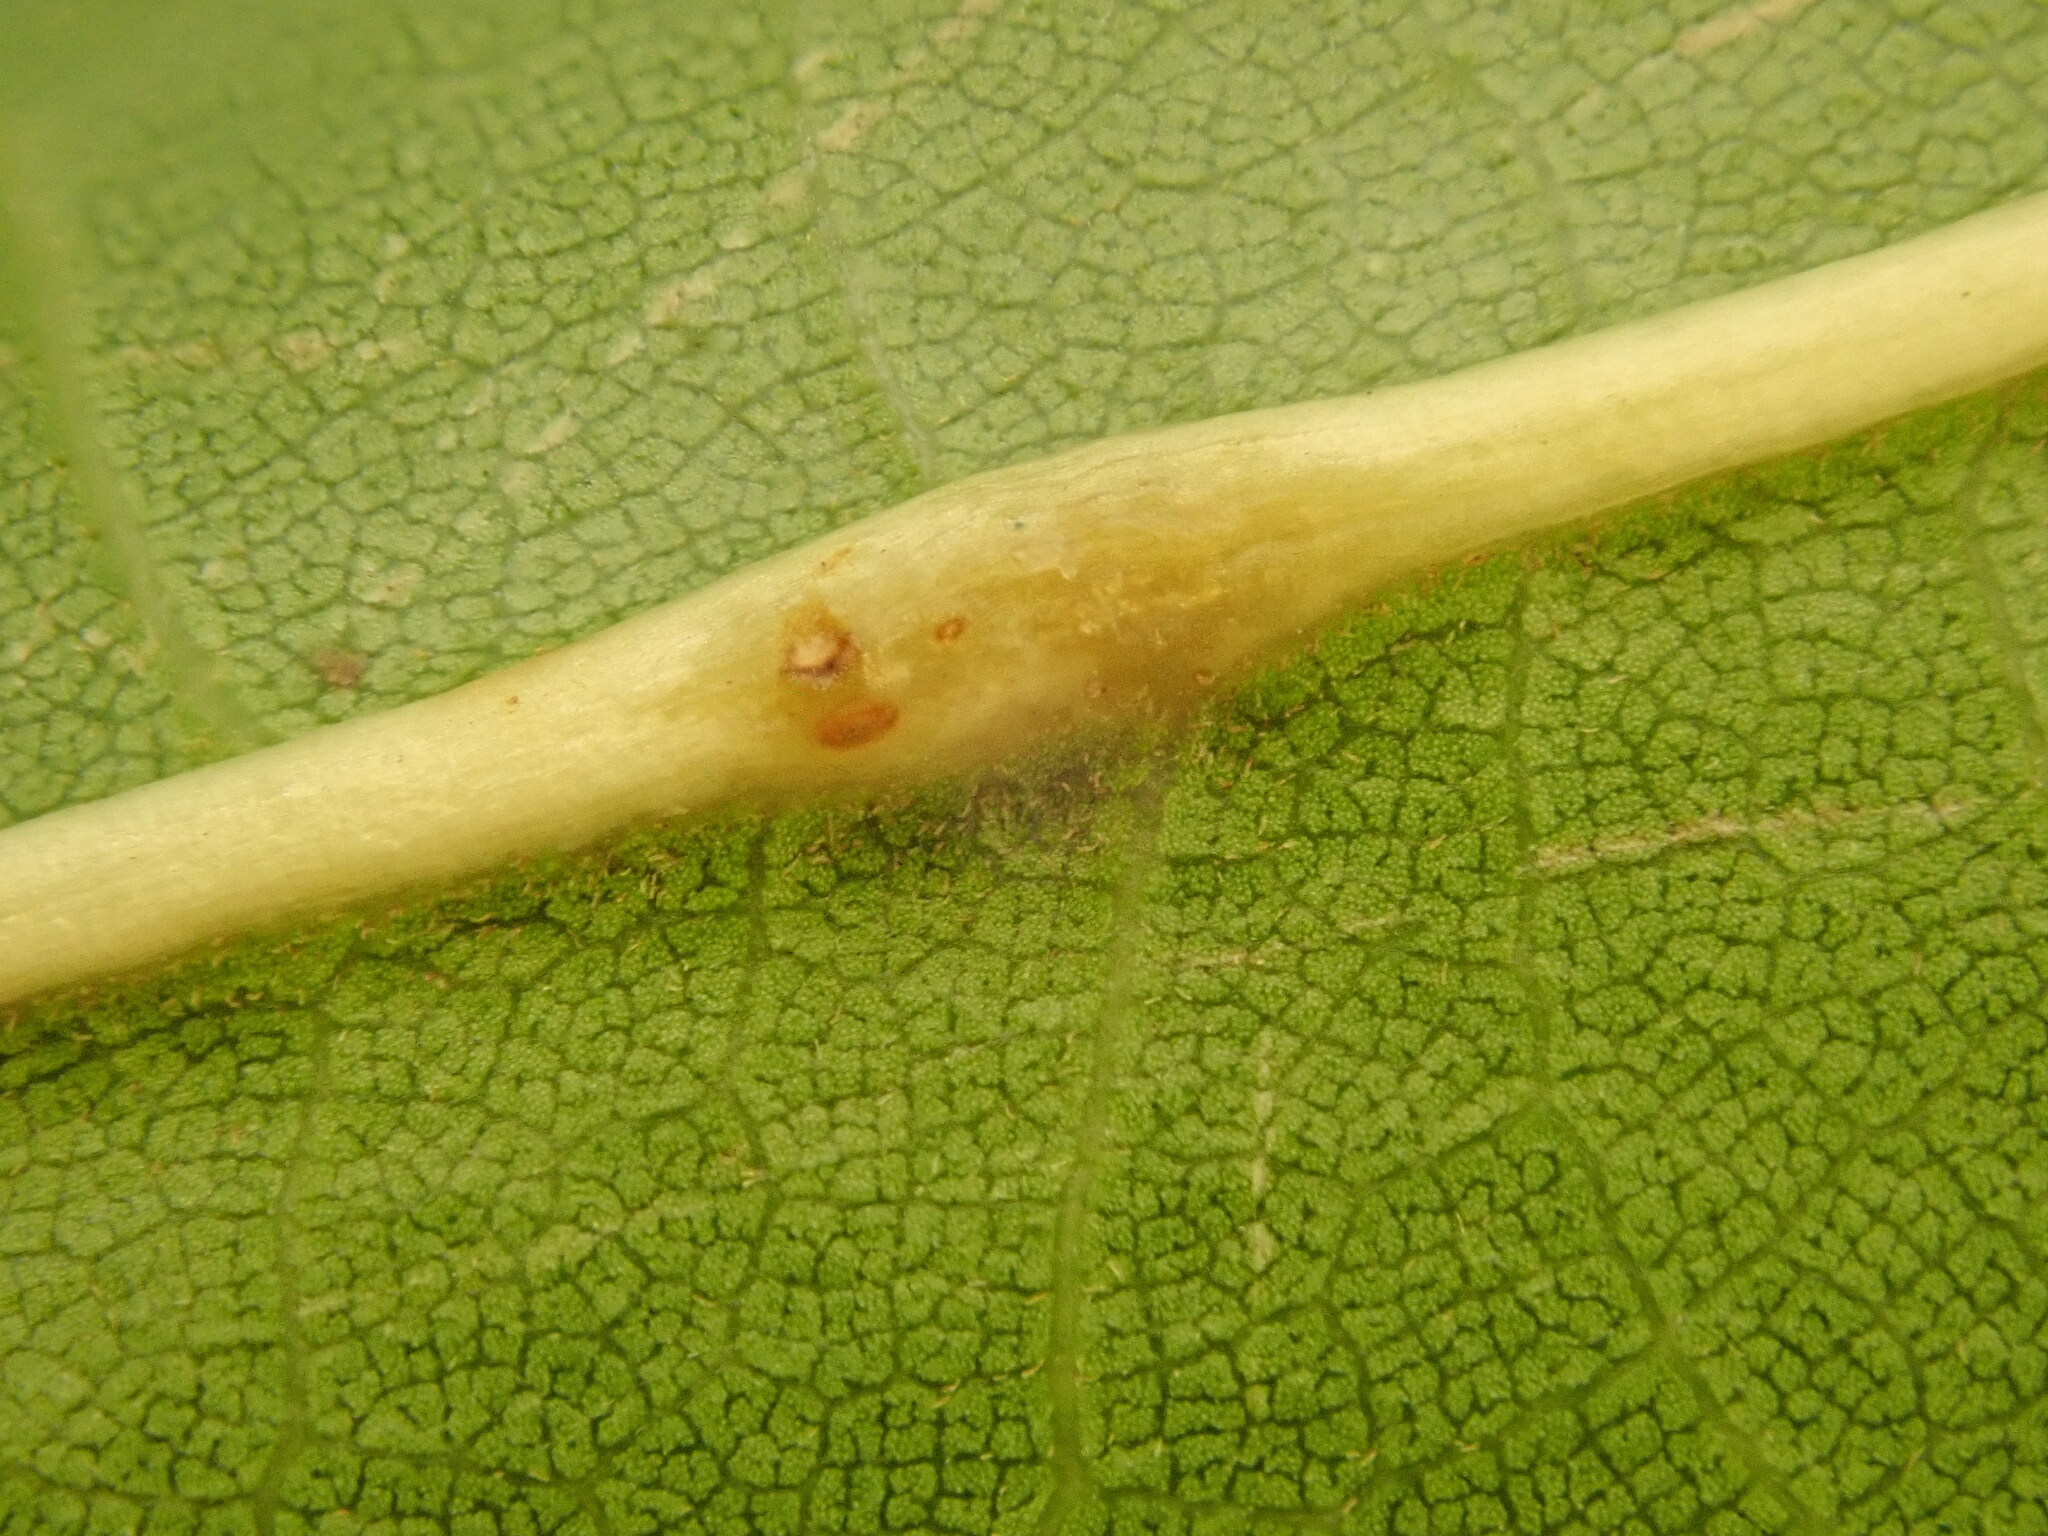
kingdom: Animalia
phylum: Arthropoda
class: Insecta
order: Diptera
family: Cecidomyiidae
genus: Polystepha
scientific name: Polystepha americana
